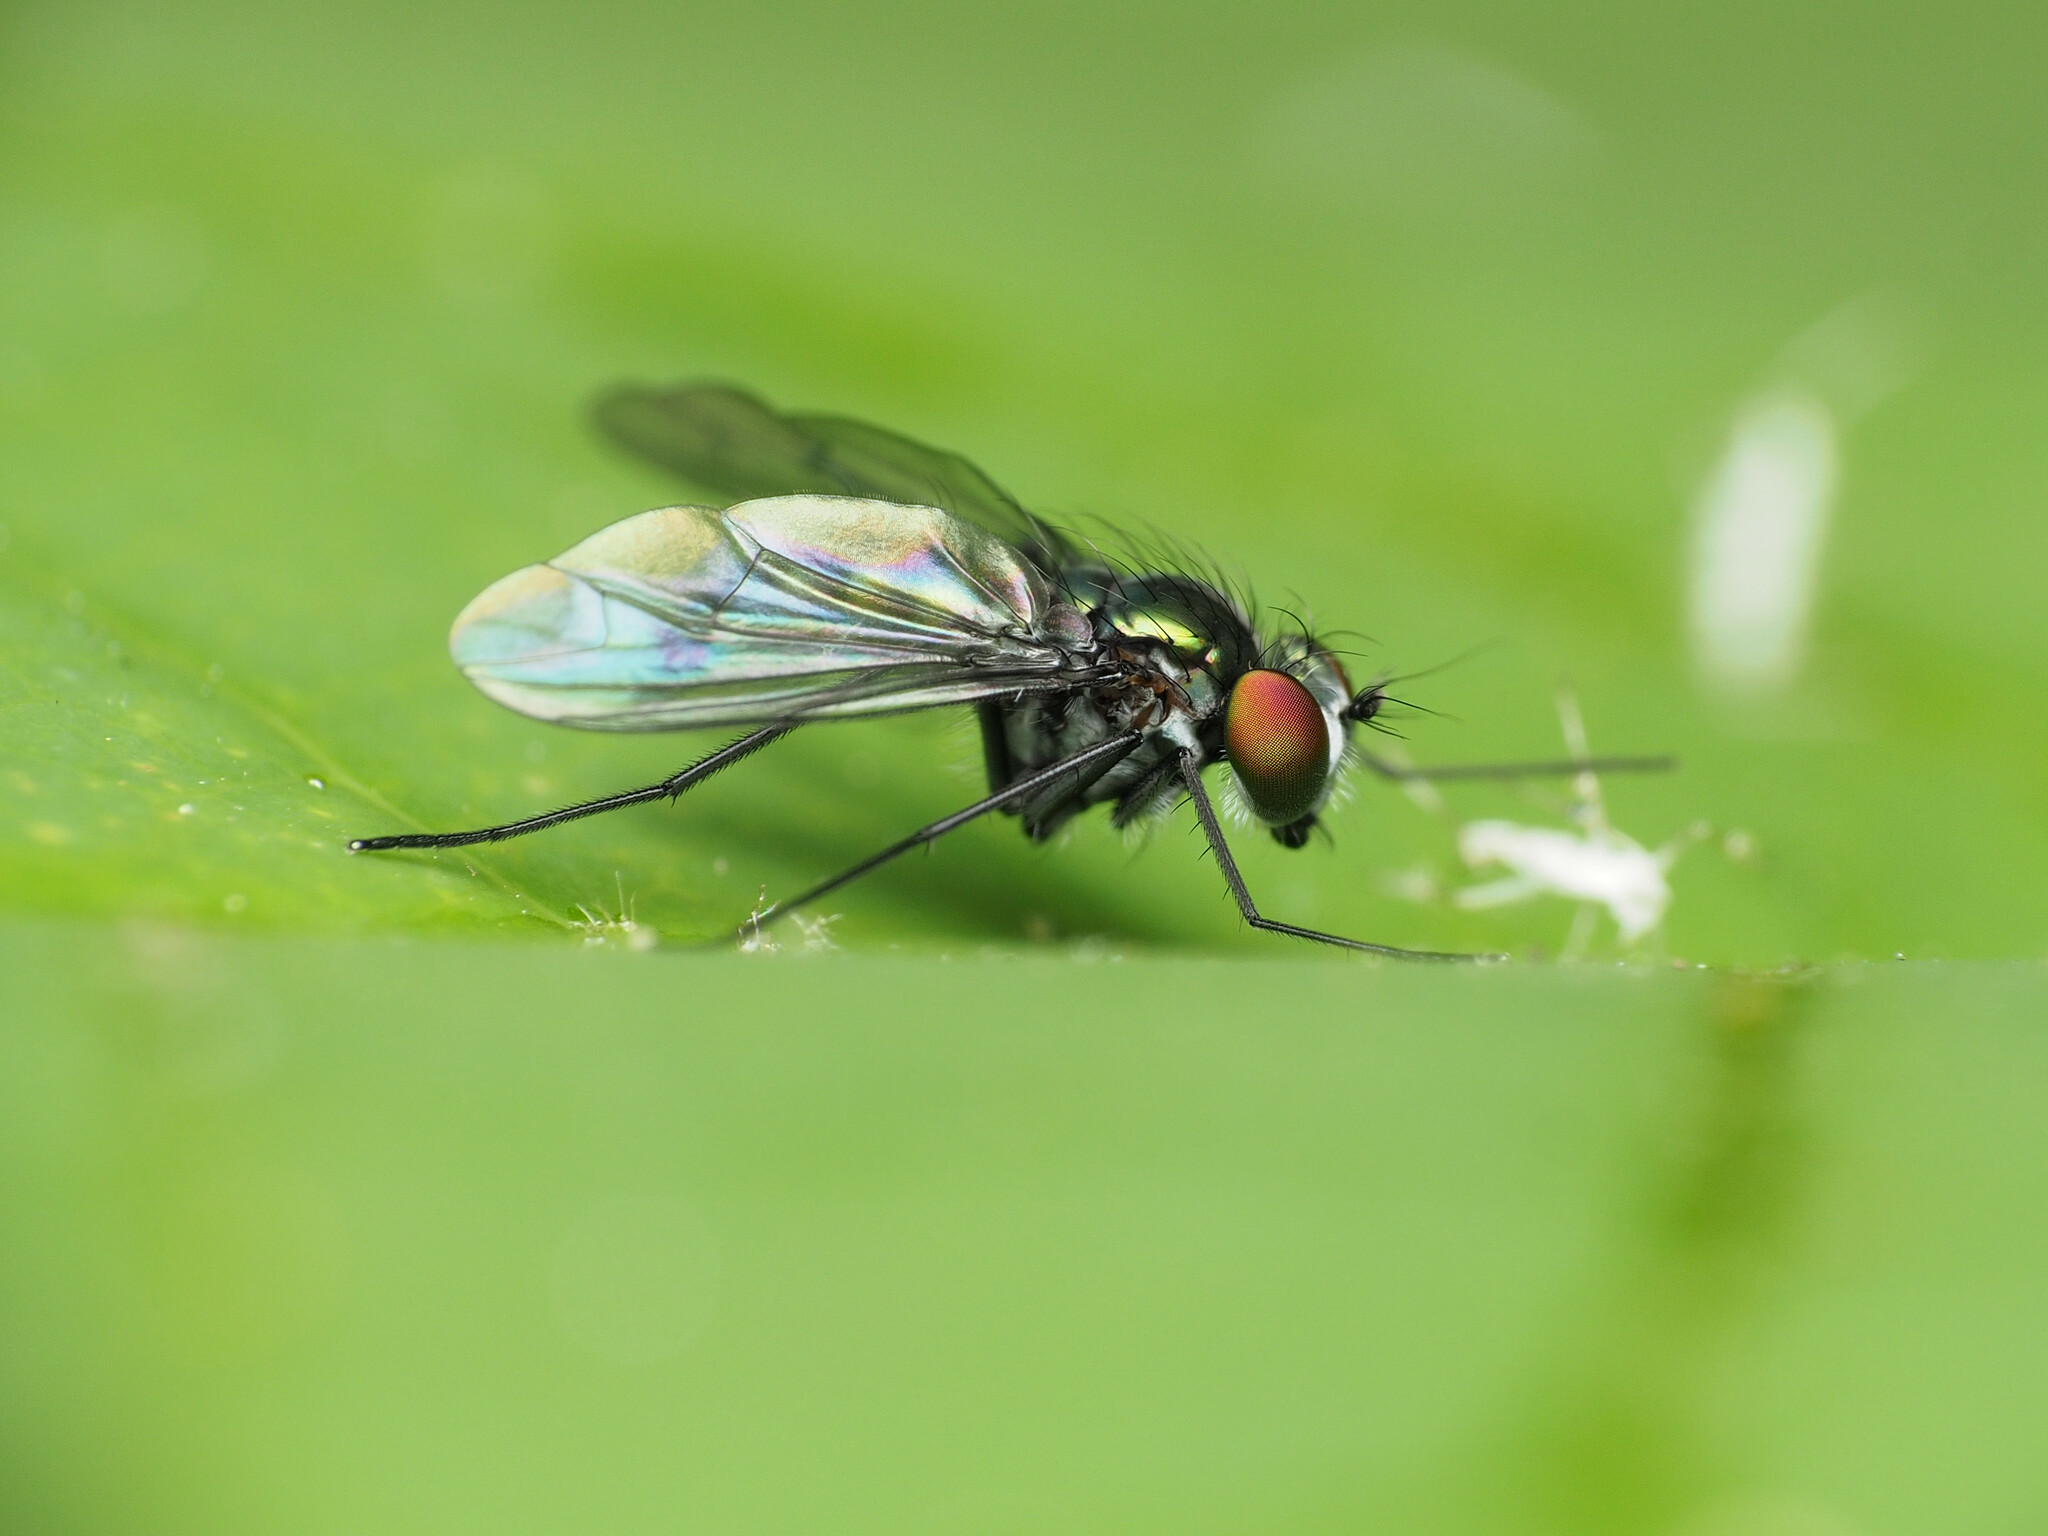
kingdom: Animalia
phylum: Arthropoda
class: Insecta
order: Diptera
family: Dolichopodidae
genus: Condylostylus
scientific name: Condylostylus patibulatus
